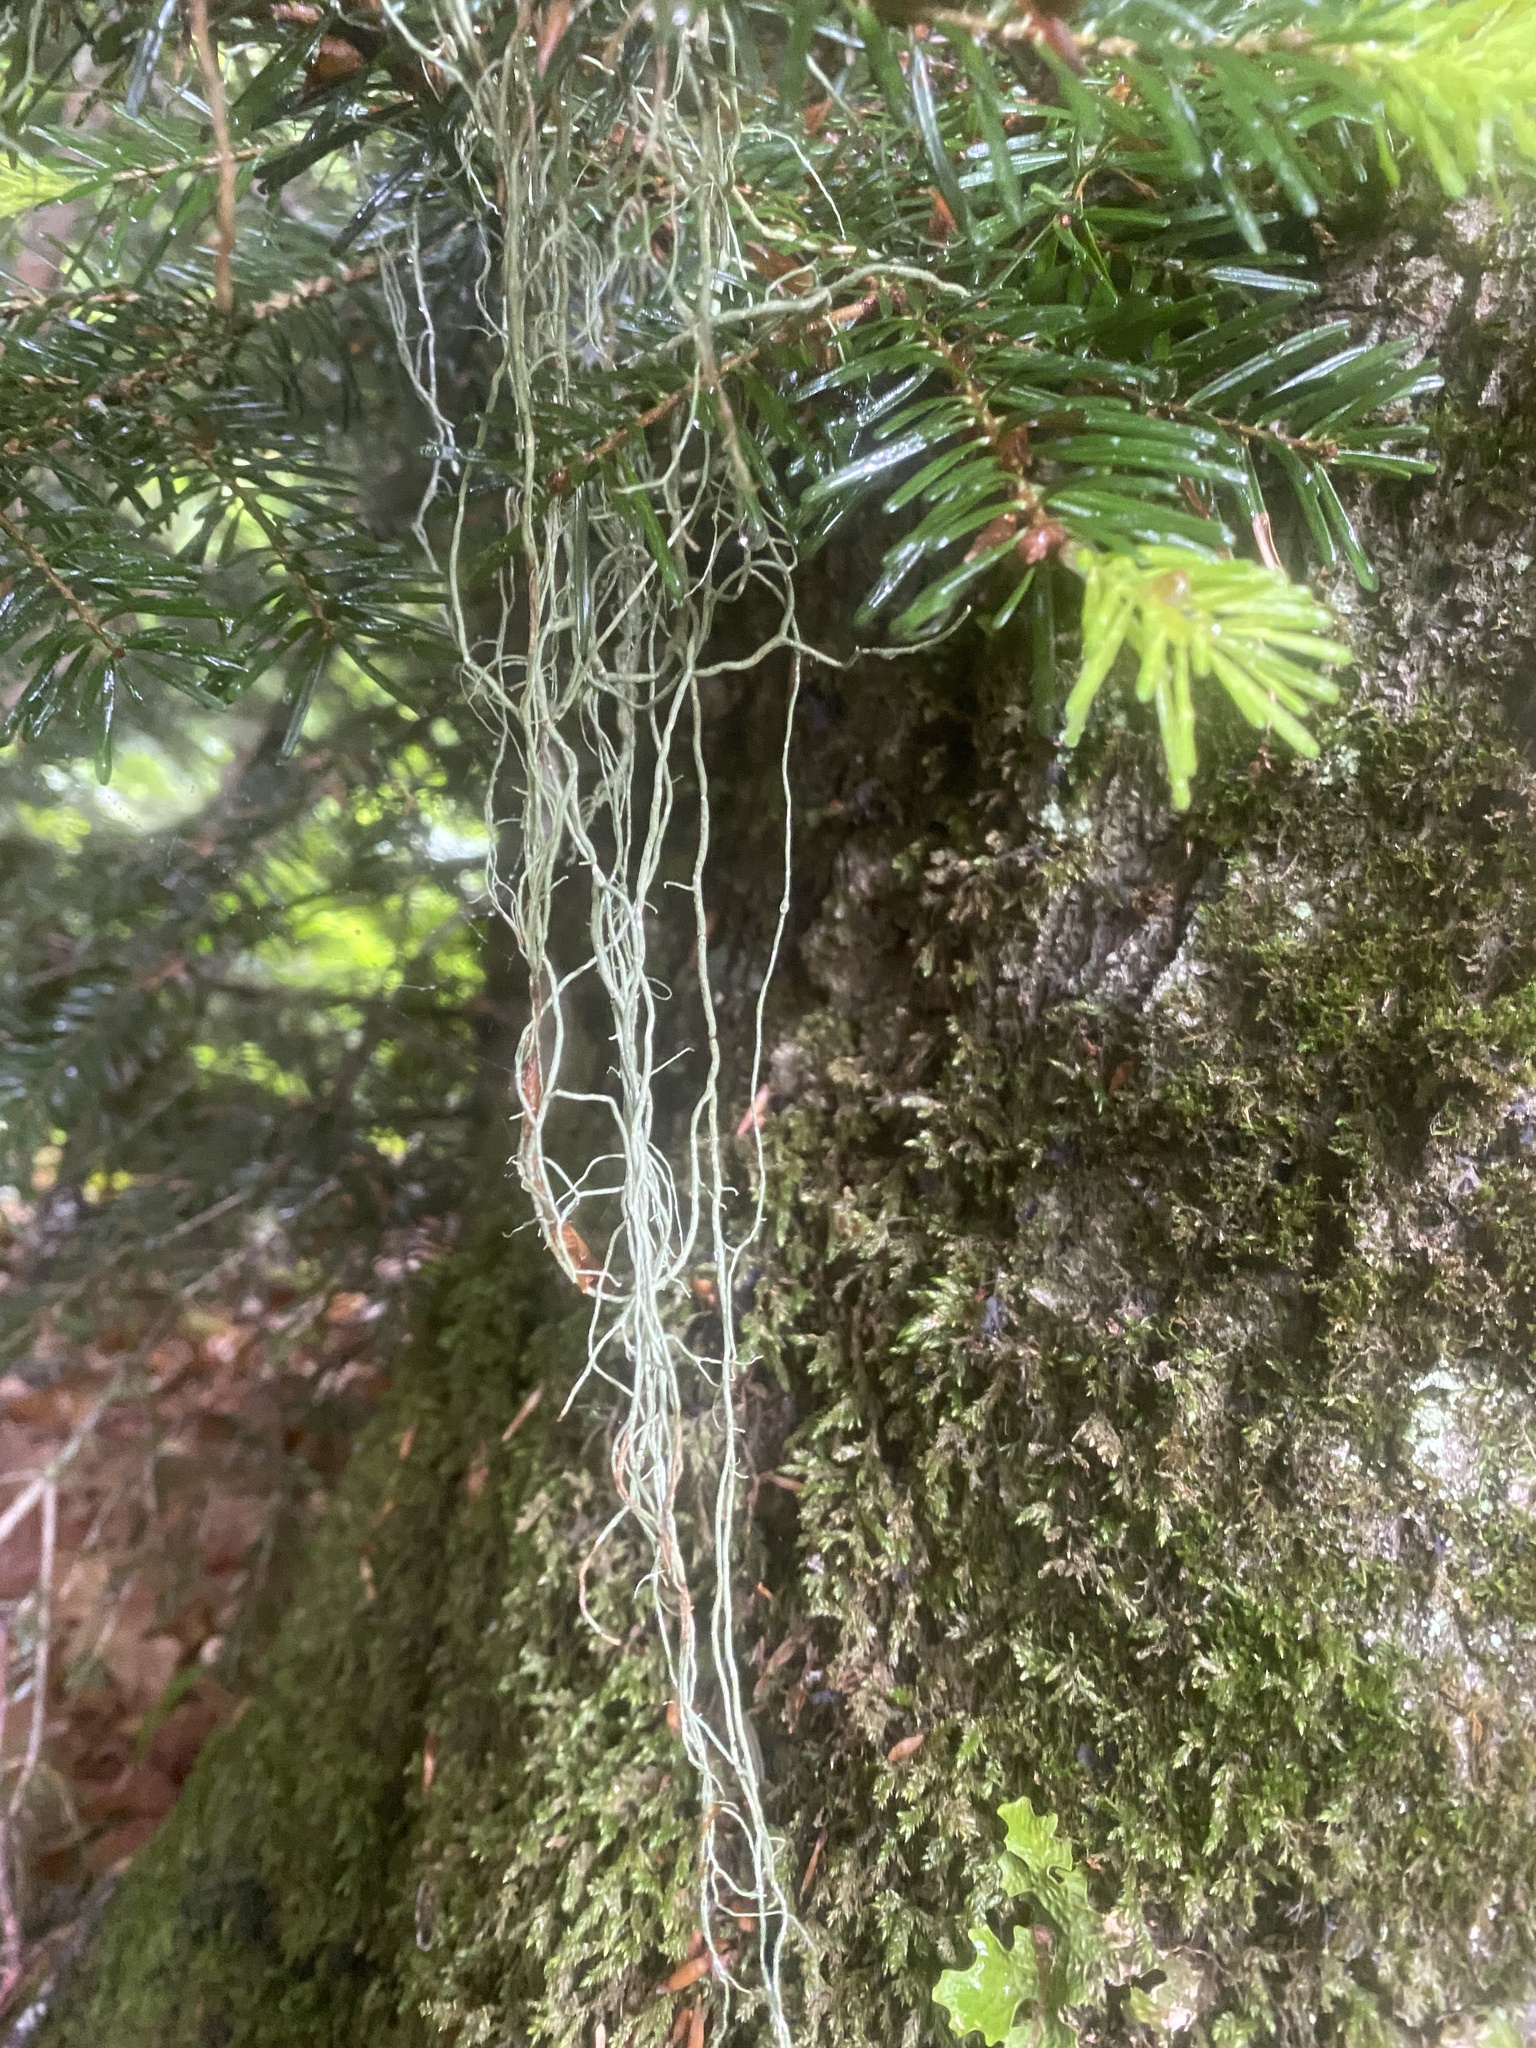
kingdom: Fungi
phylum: Ascomycota
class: Lecanoromycetes
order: Lecanorales
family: Parmeliaceae
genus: Usnea
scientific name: Usnea
